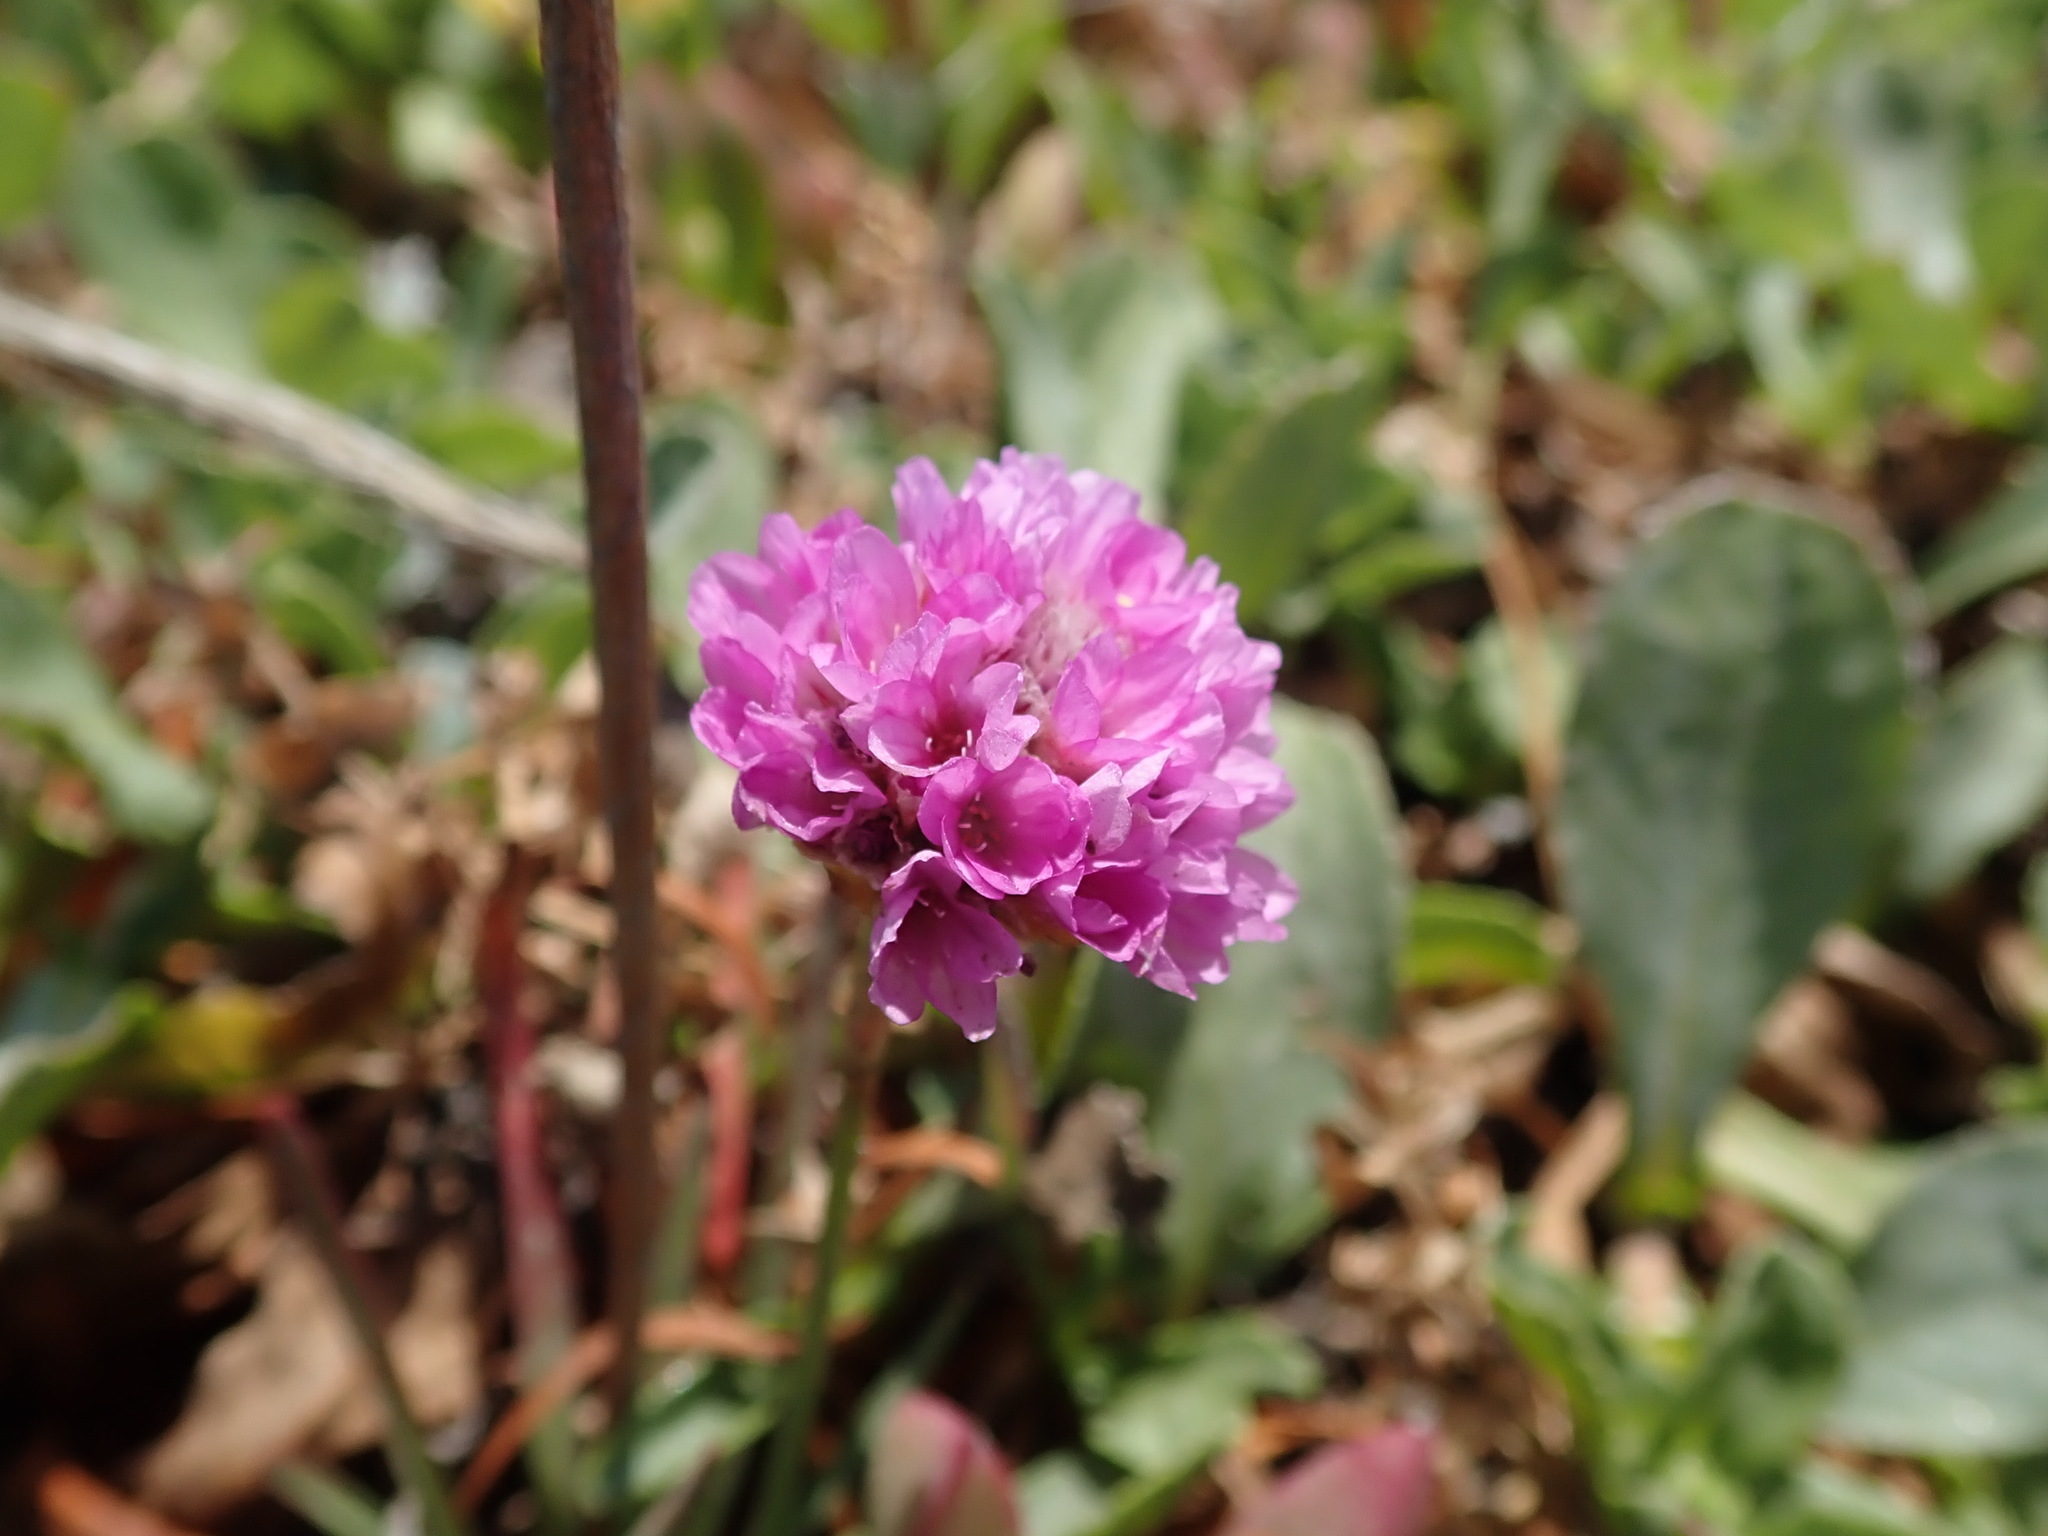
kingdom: Plantae
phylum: Tracheophyta
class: Magnoliopsida
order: Caryophyllales
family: Plumbaginaceae
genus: Armeria
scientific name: Armeria maritima
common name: Thrift
